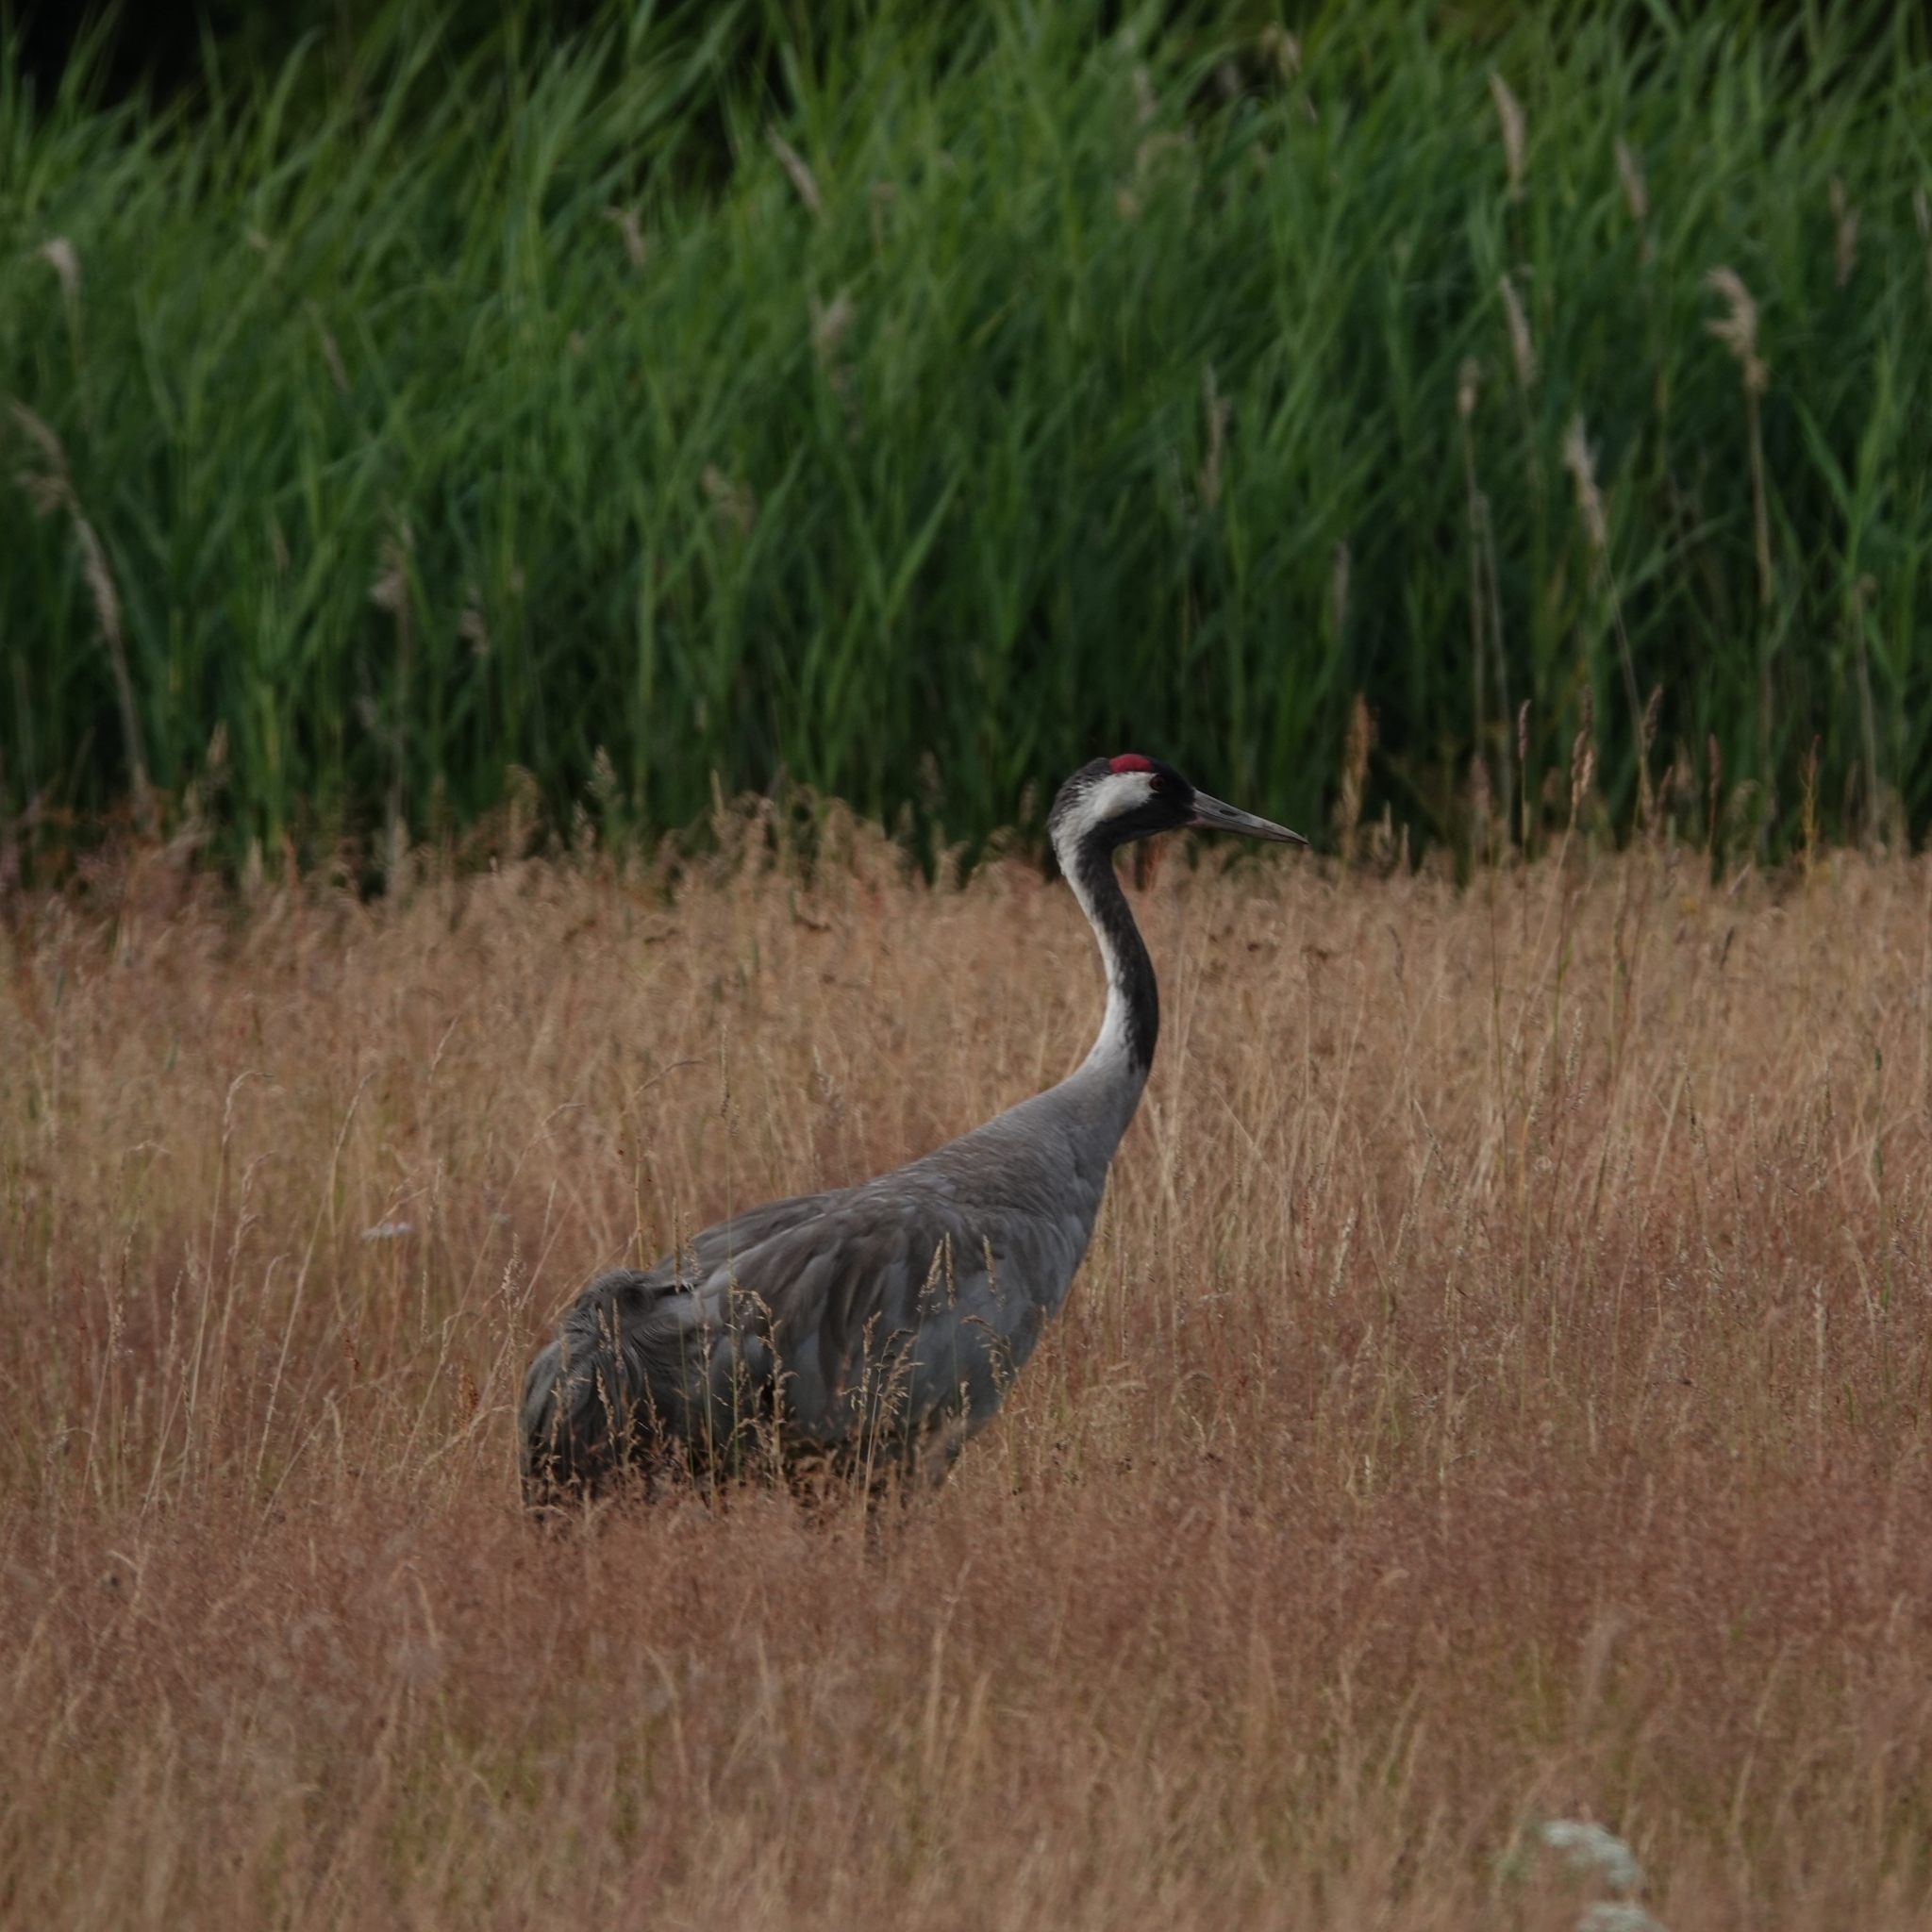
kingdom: Animalia
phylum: Chordata
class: Aves
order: Gruiformes
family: Gruidae
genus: Grus
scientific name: Grus grus
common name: Common crane
